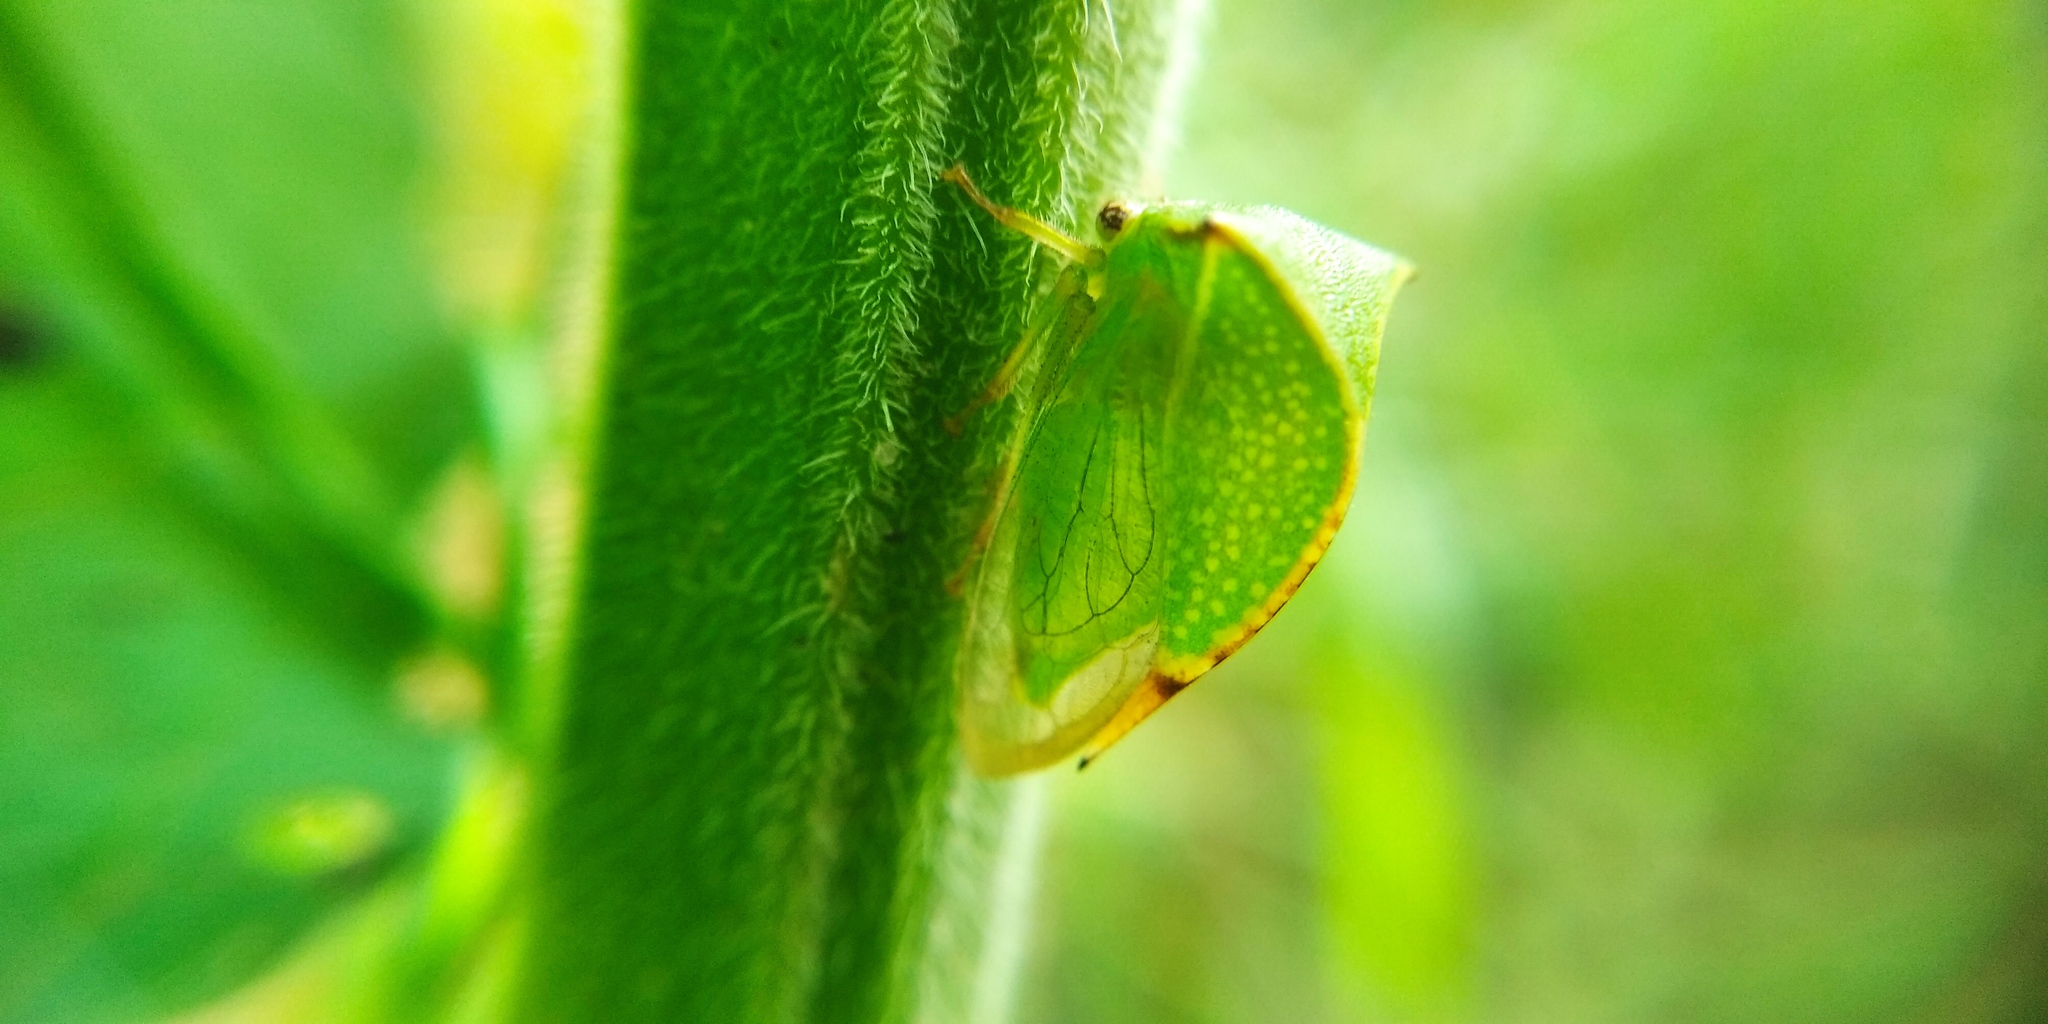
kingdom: Animalia
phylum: Arthropoda
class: Insecta
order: Hemiptera
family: Membracidae
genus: Stictocephala
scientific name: Stictocephala bisonia
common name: American buffalo treehopper
